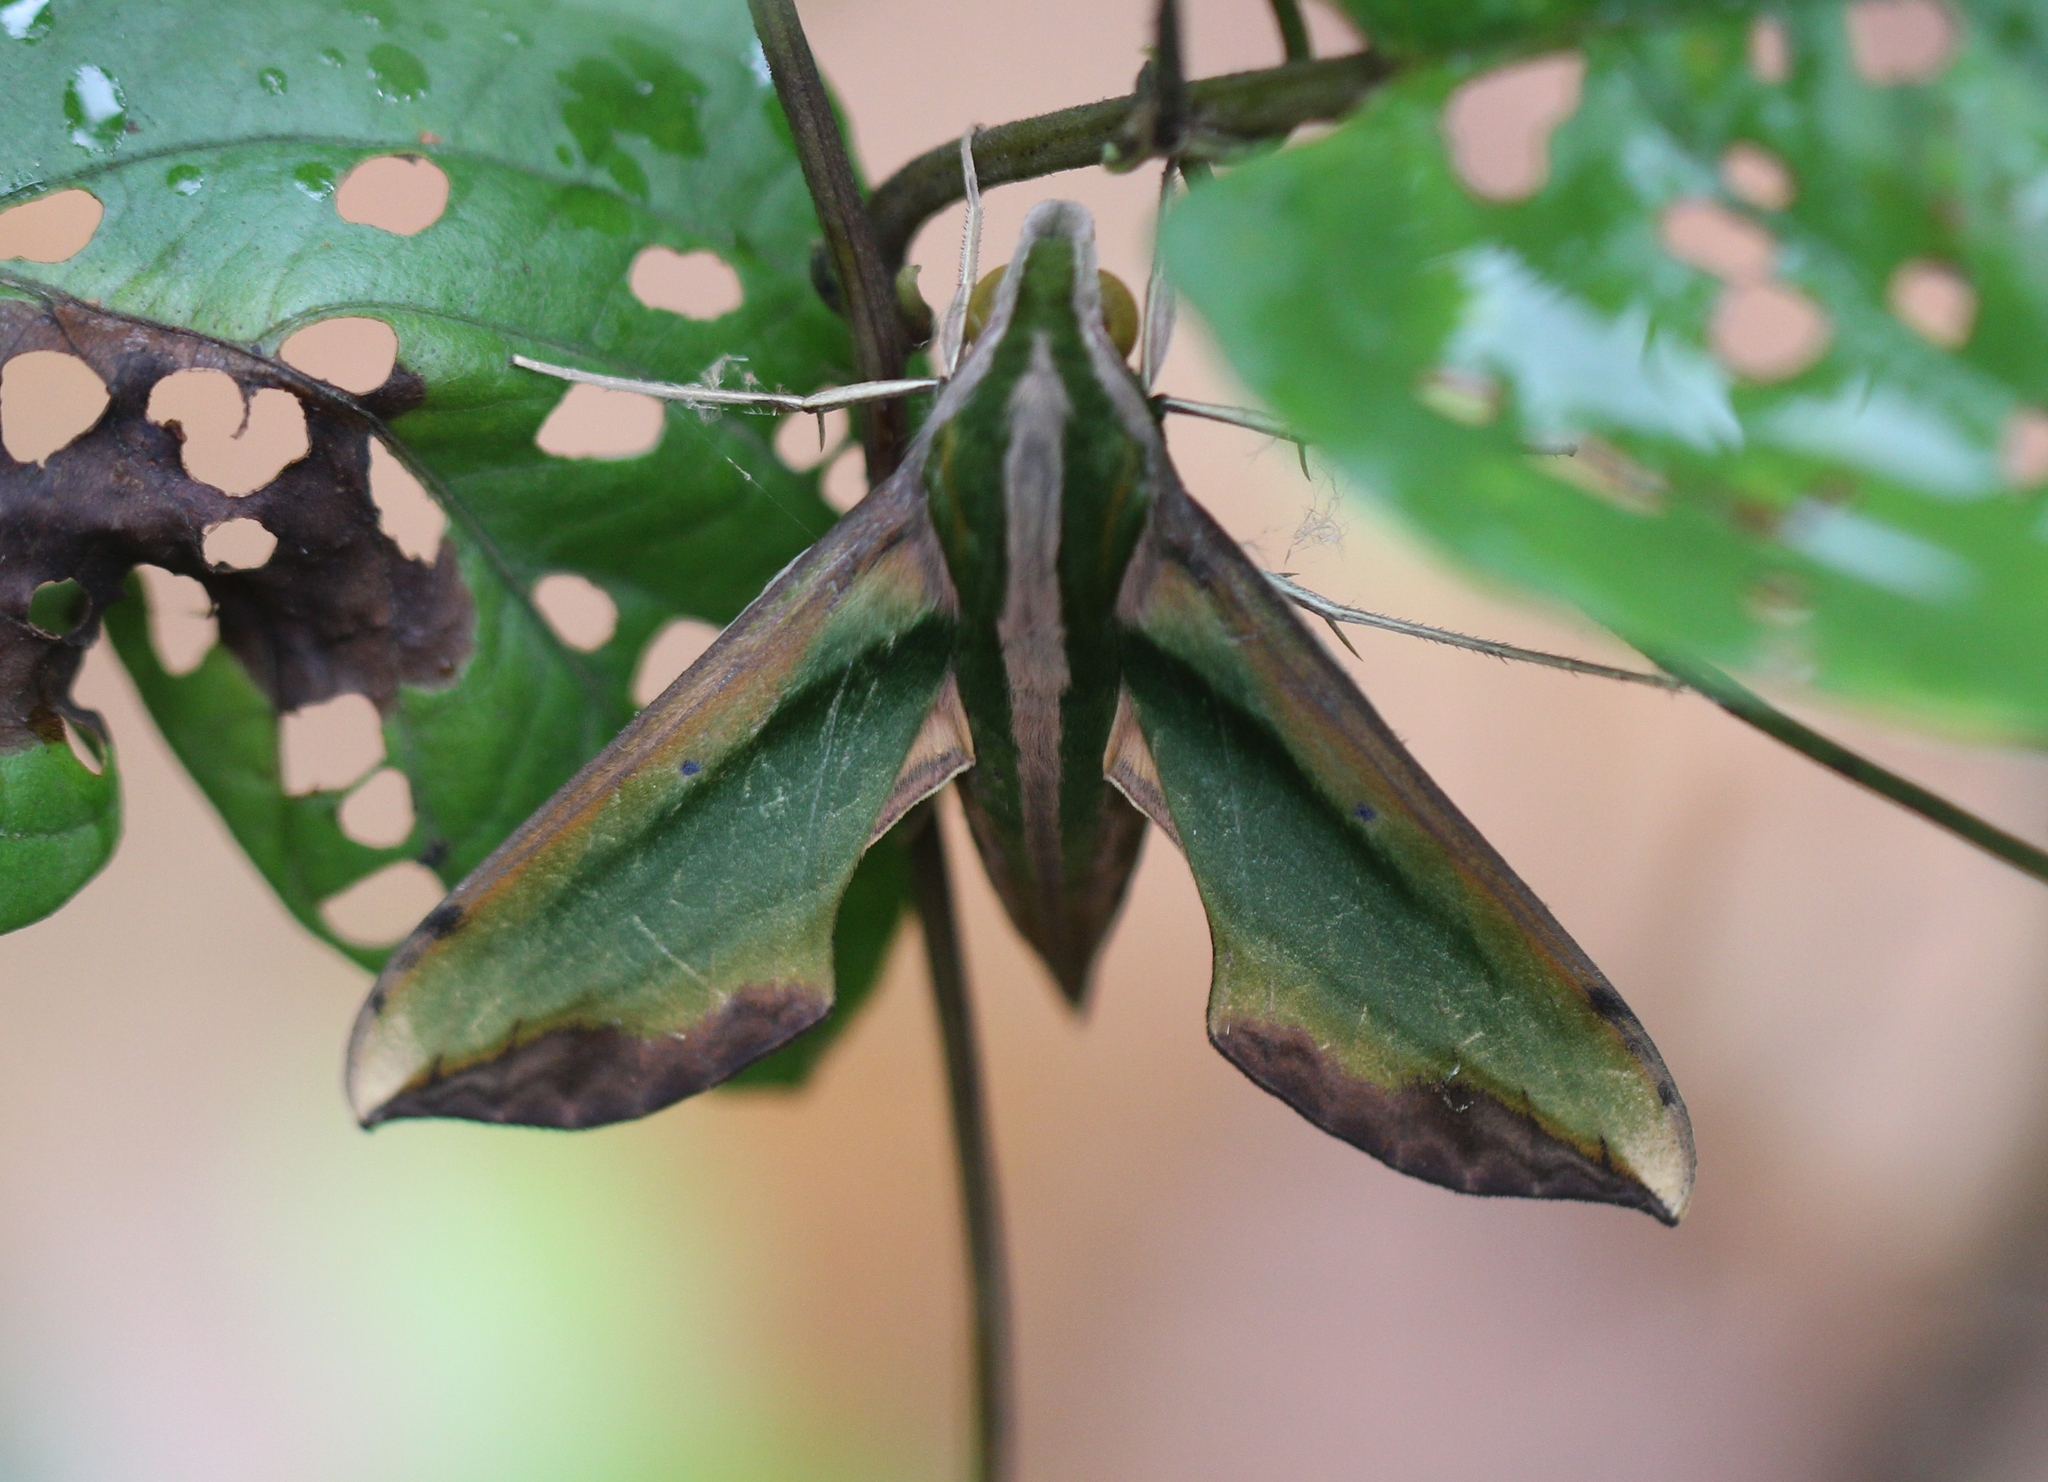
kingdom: Animalia
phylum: Arthropoda
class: Insecta
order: Lepidoptera
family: Sphingidae
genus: Pergesa
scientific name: Pergesa acteus
